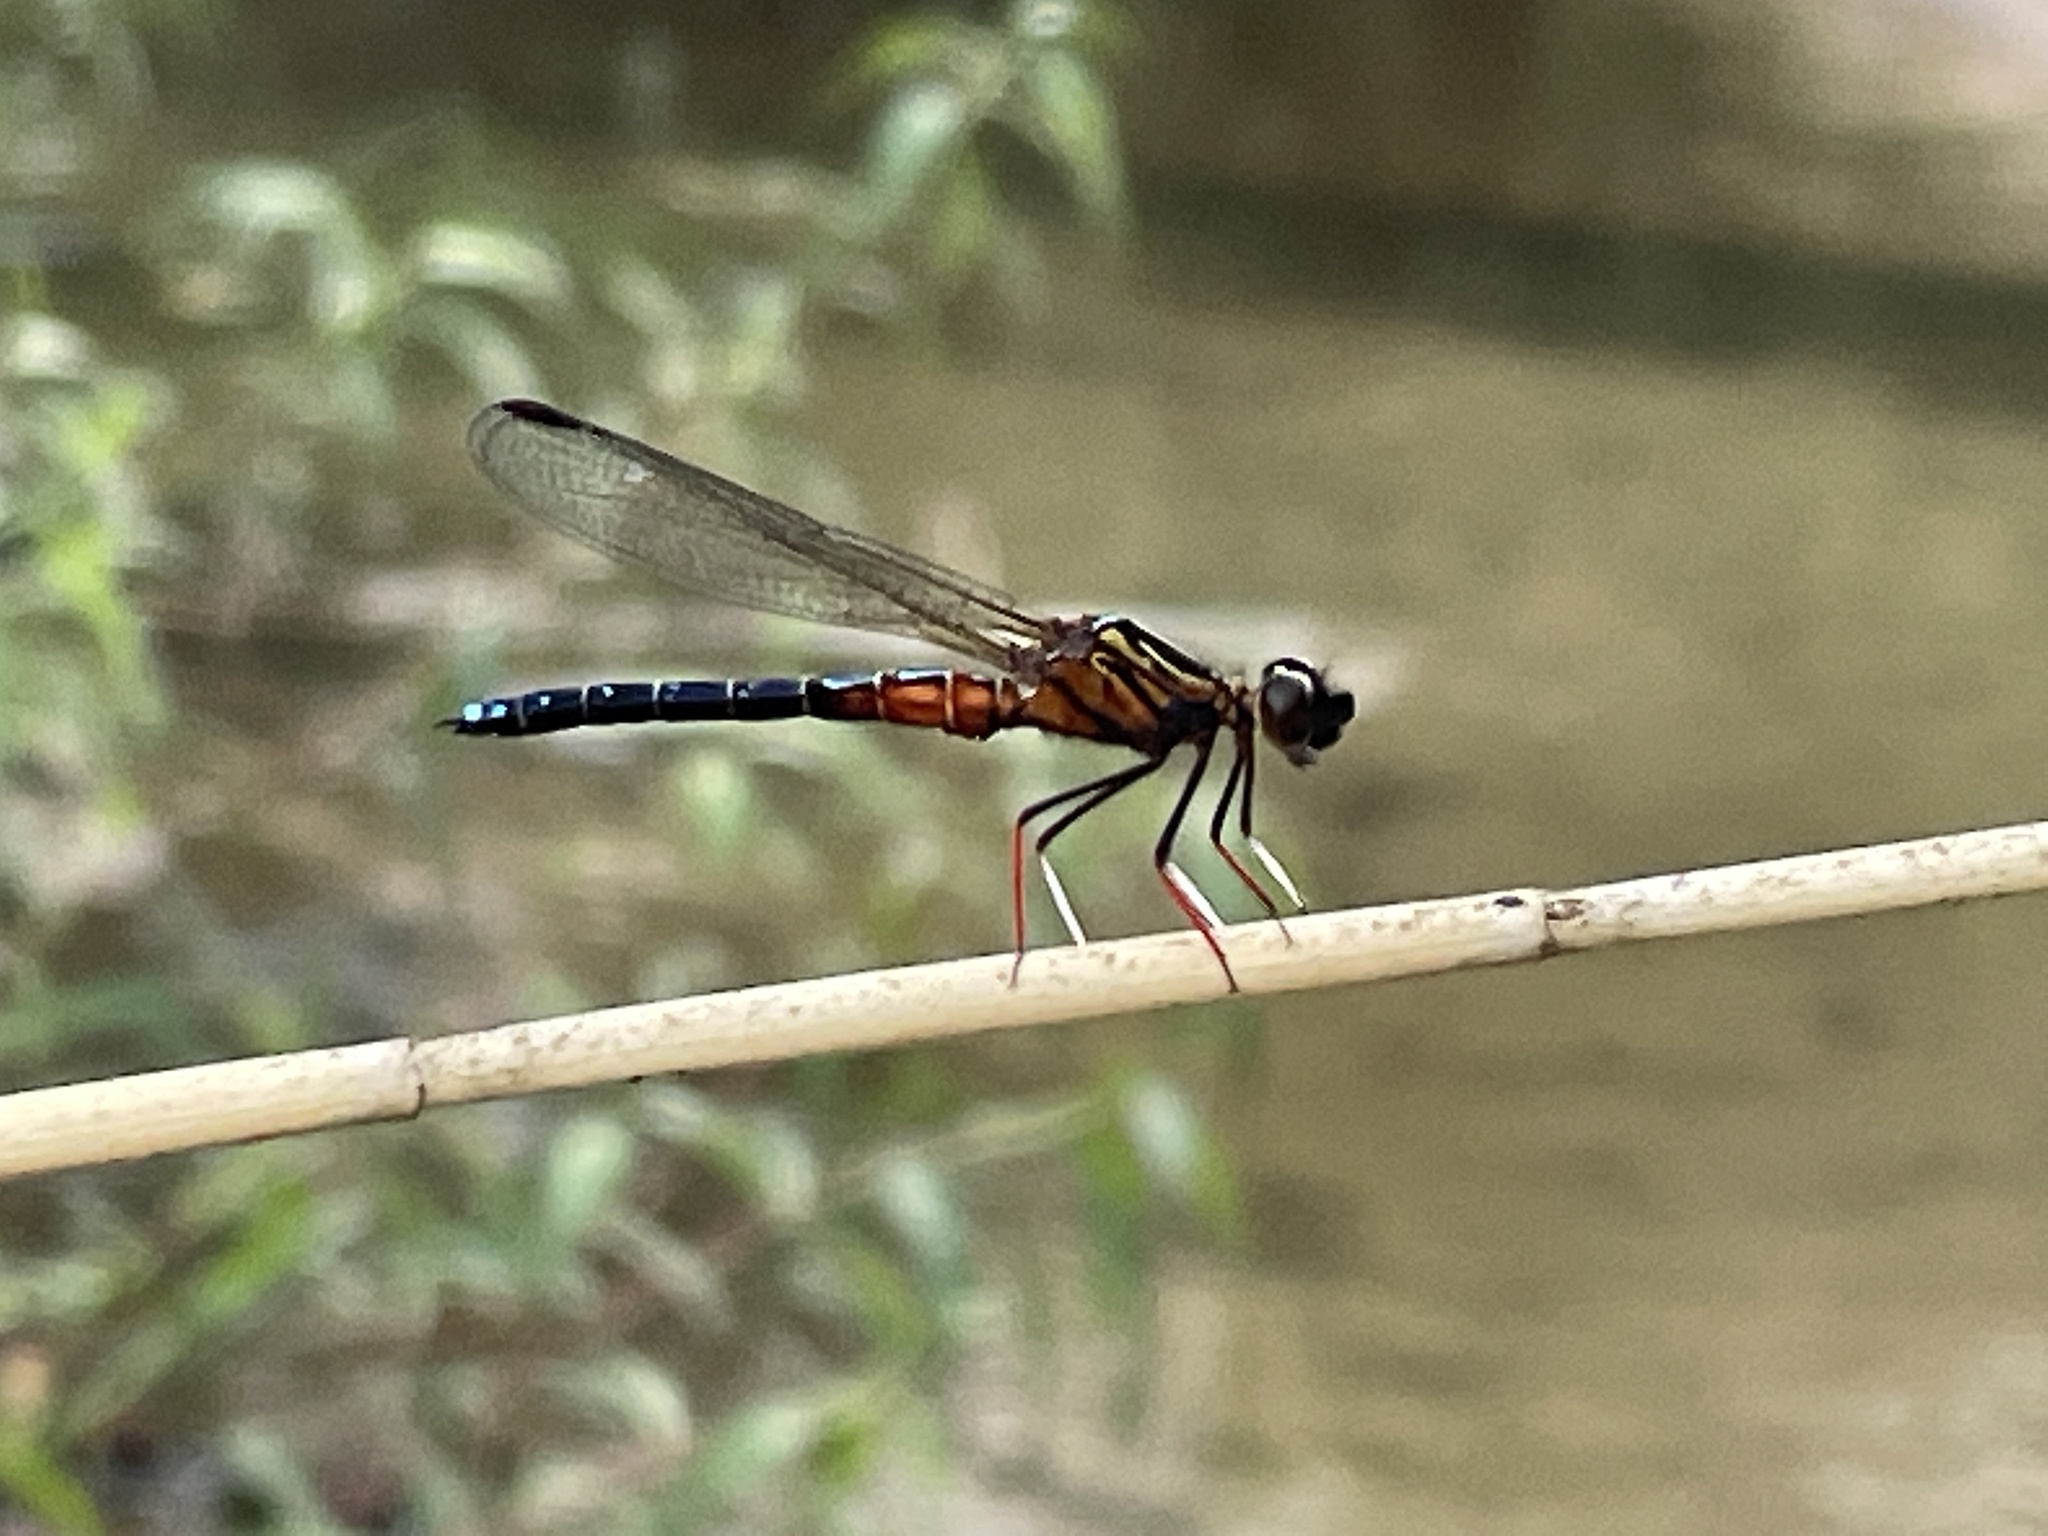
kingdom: Animalia
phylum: Arthropoda
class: Insecta
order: Odonata
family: Chlorocyphidae
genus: Platycypha
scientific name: Platycypha caligata
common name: Dancing jewel
